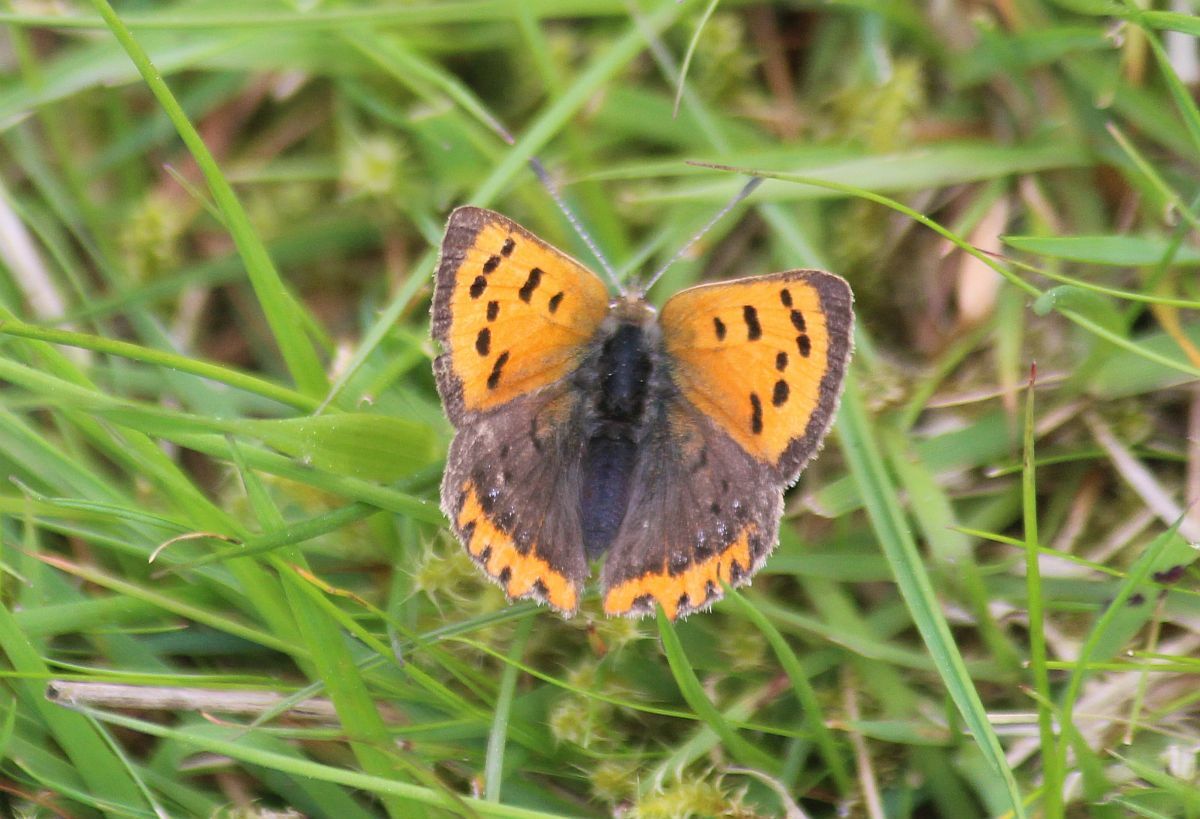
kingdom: Animalia
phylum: Arthropoda
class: Insecta
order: Lepidoptera
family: Lycaenidae
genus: Lycaena
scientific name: Lycaena phlaeas
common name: Small copper
